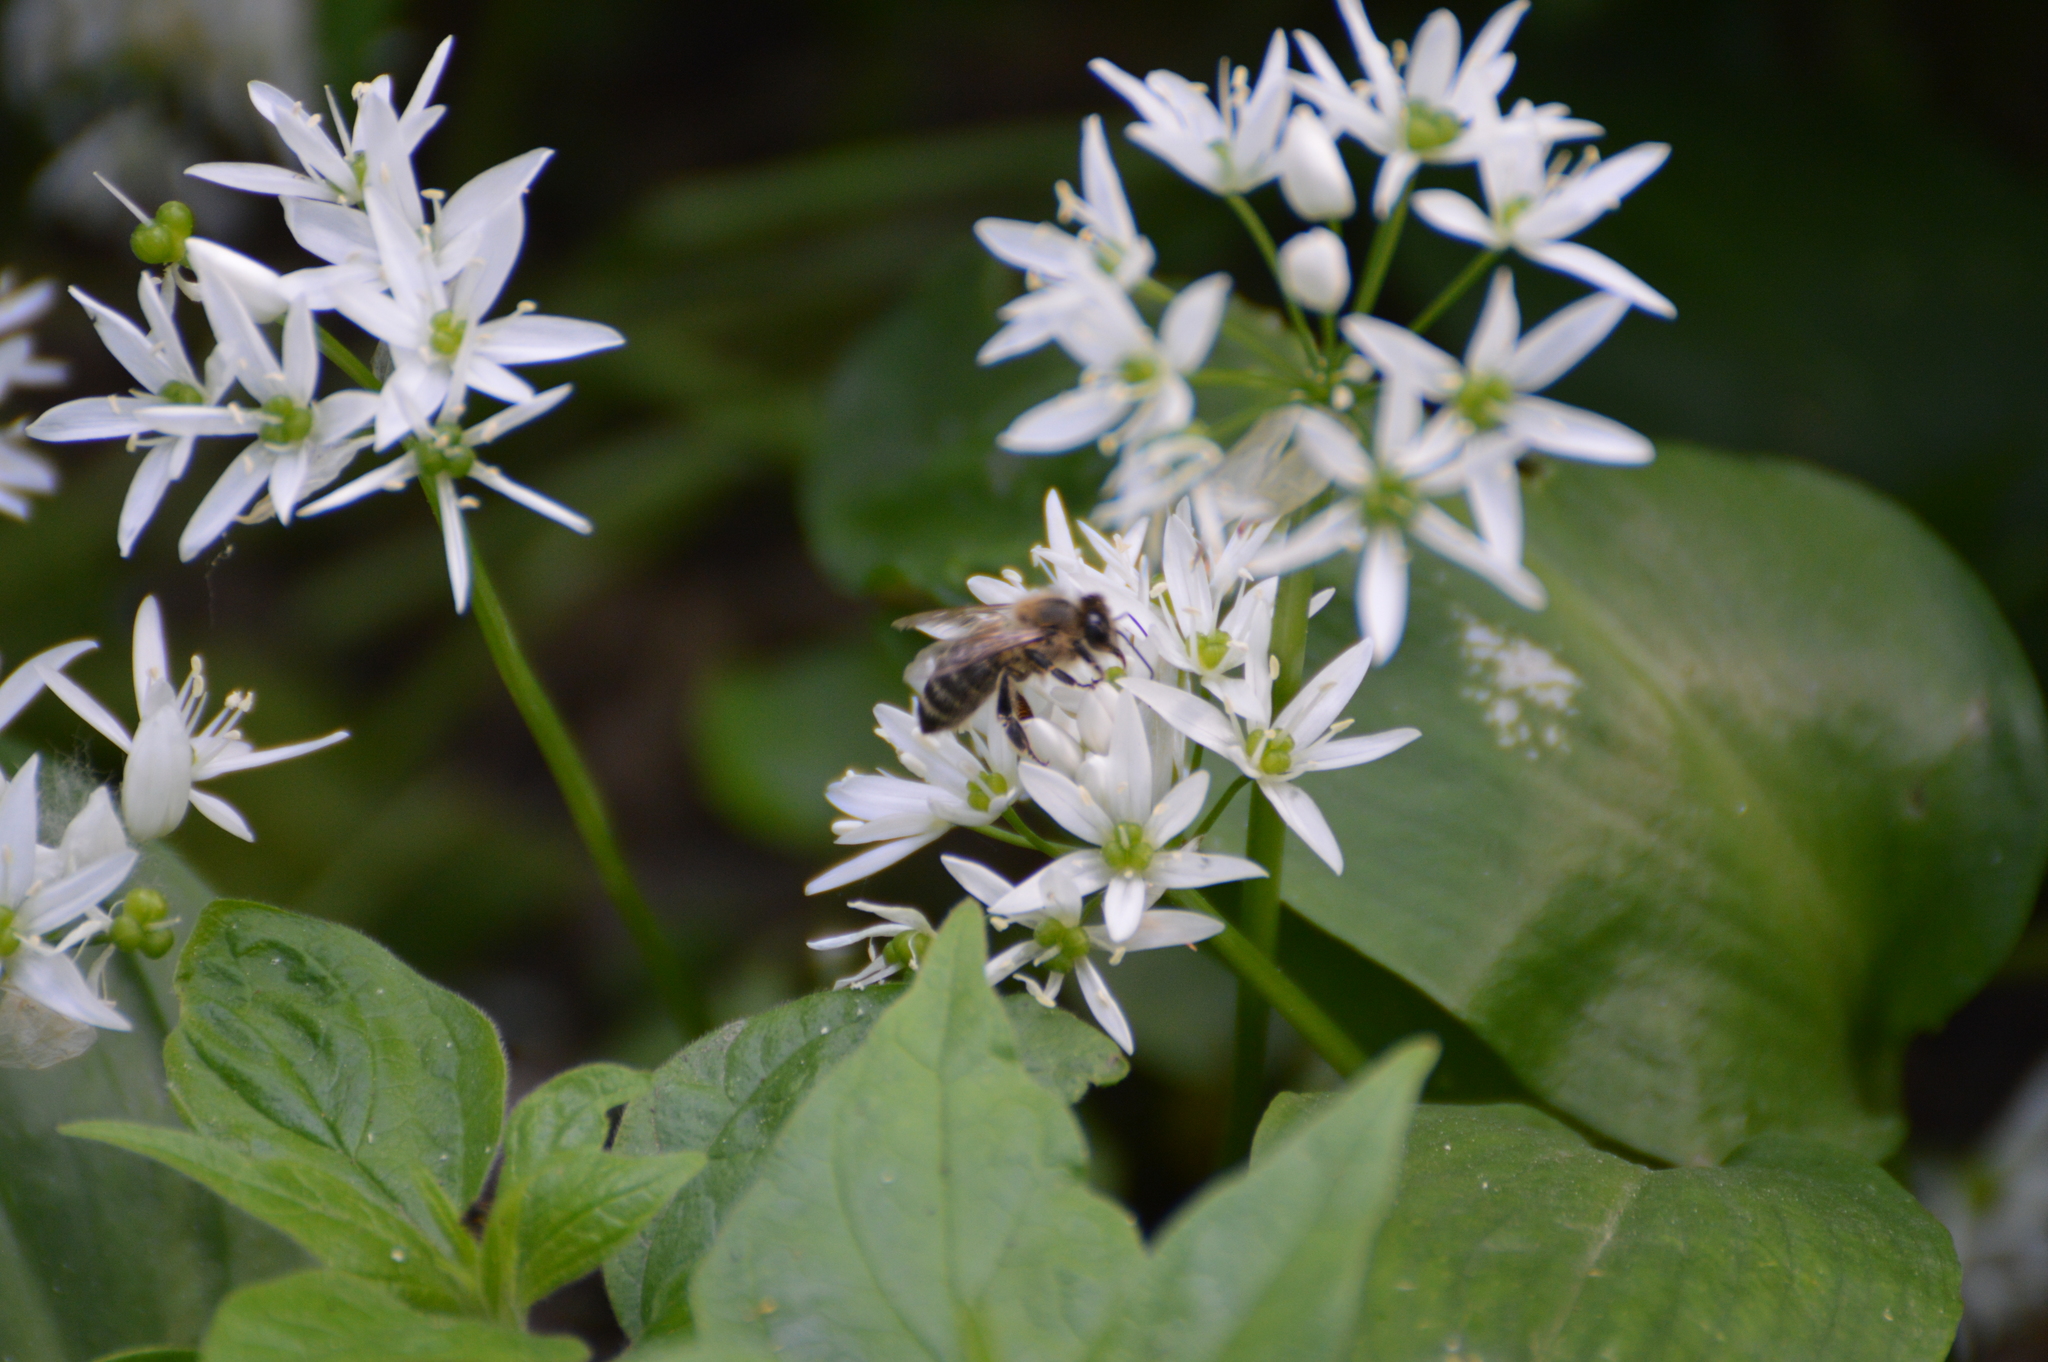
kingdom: Animalia
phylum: Arthropoda
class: Insecta
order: Hymenoptera
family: Apidae
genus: Apis
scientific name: Apis mellifera
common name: Honey bee
